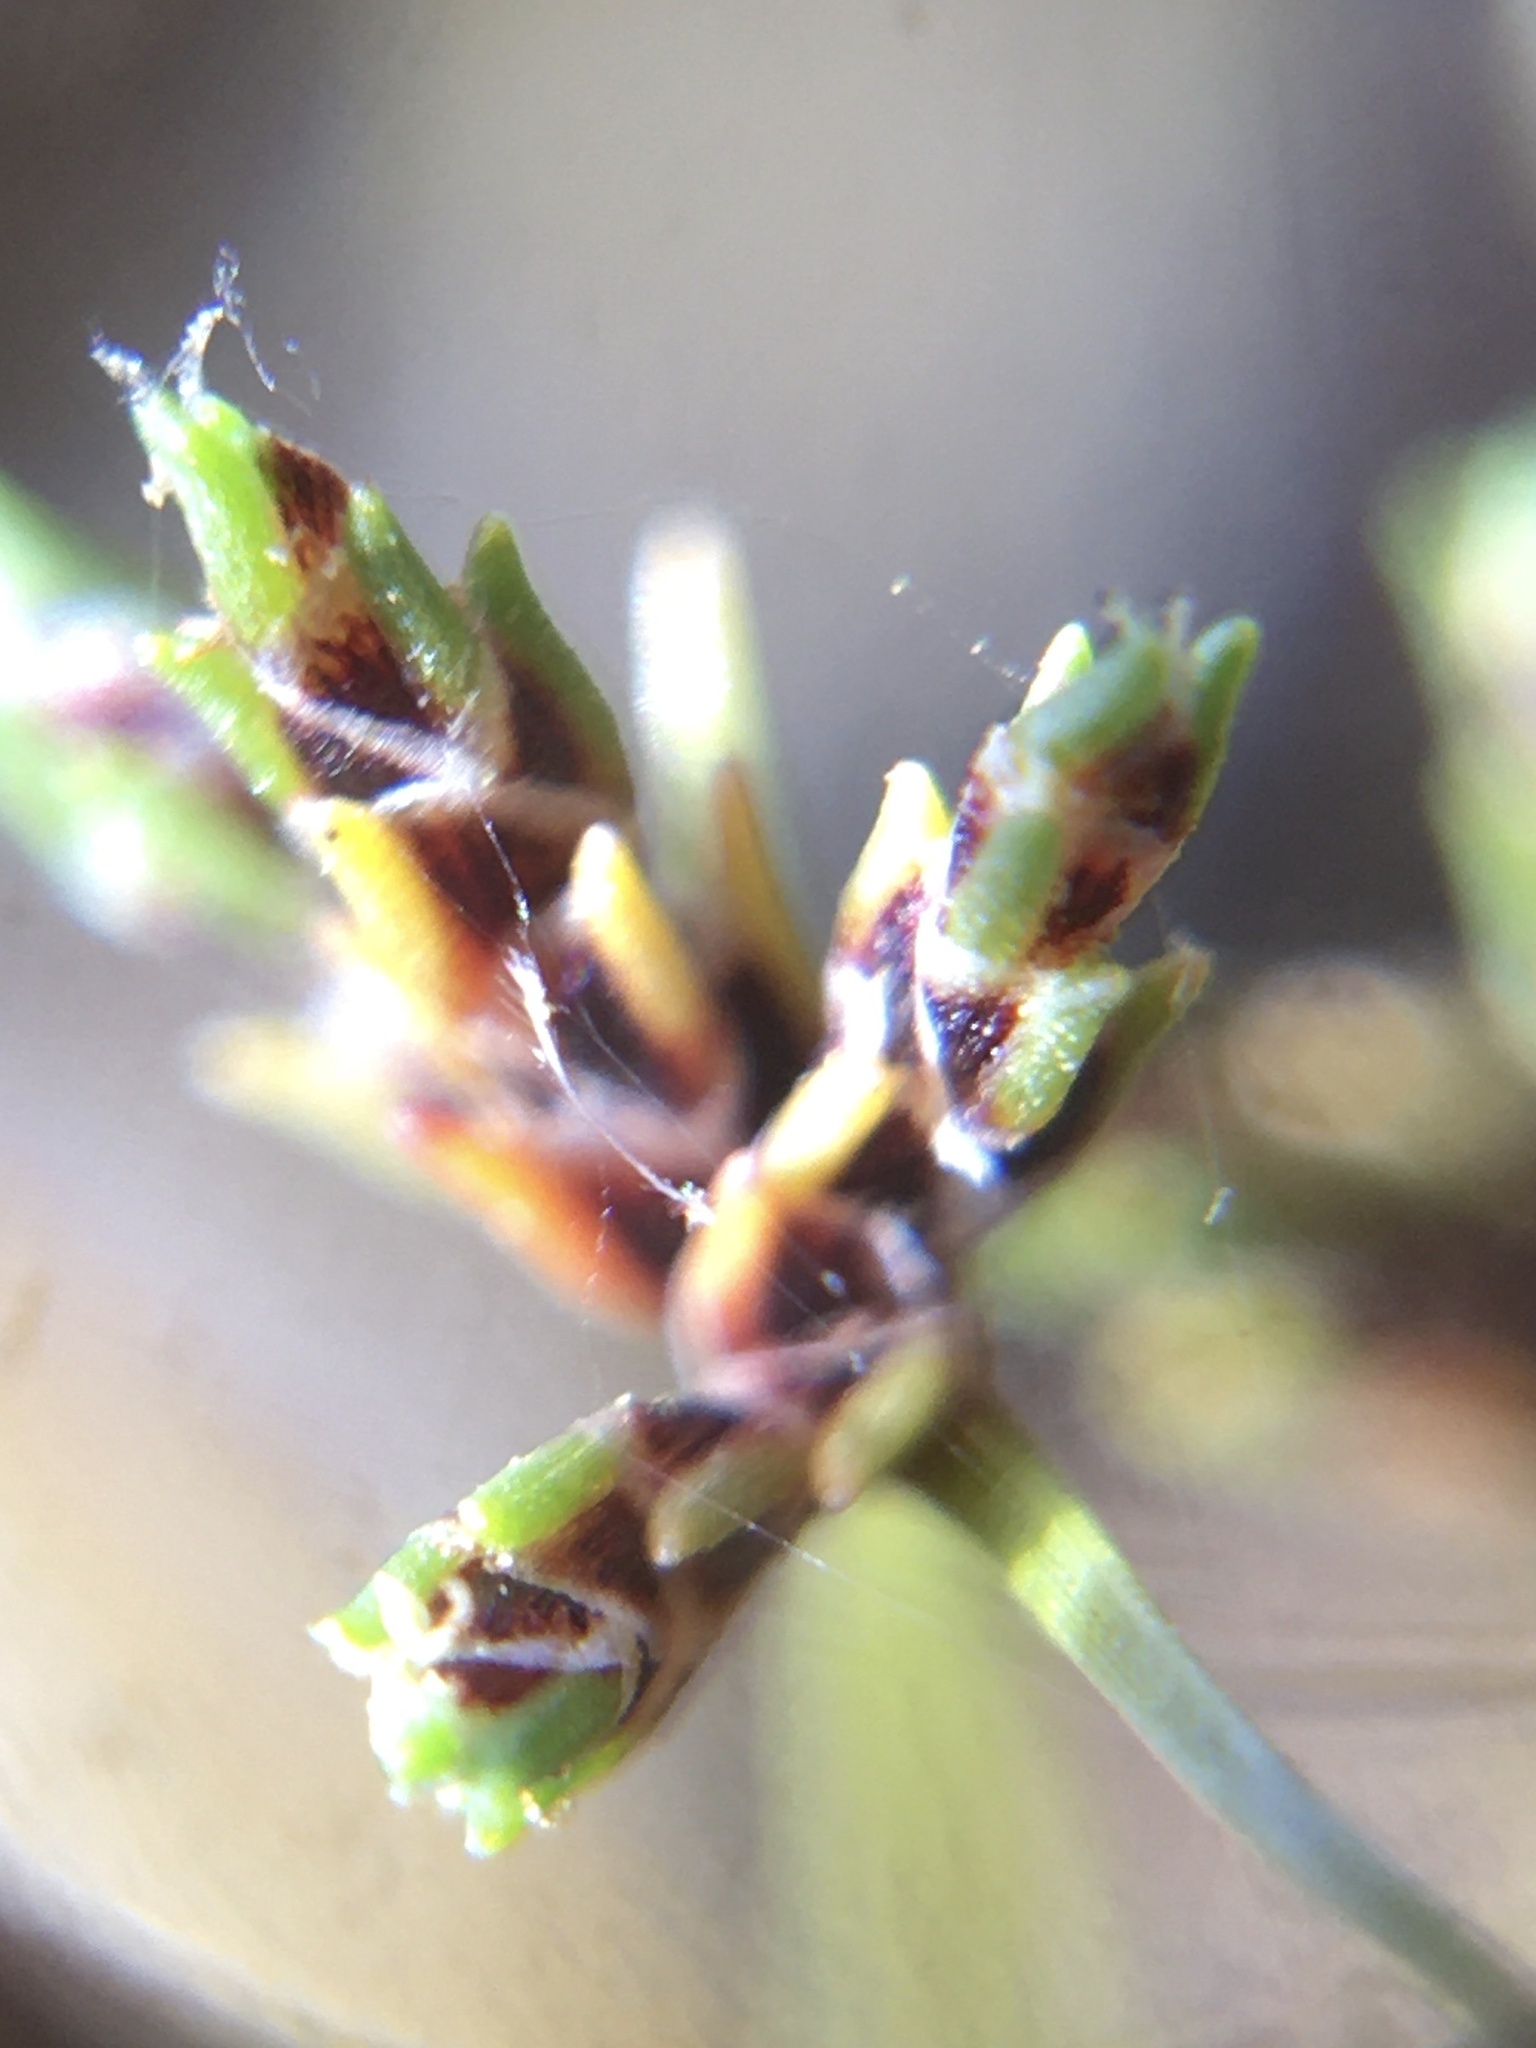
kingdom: Plantae
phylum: Tracheophyta
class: Liliopsida
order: Poales
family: Cyperaceae
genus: Ficinia
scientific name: Ficinia leucoloma
